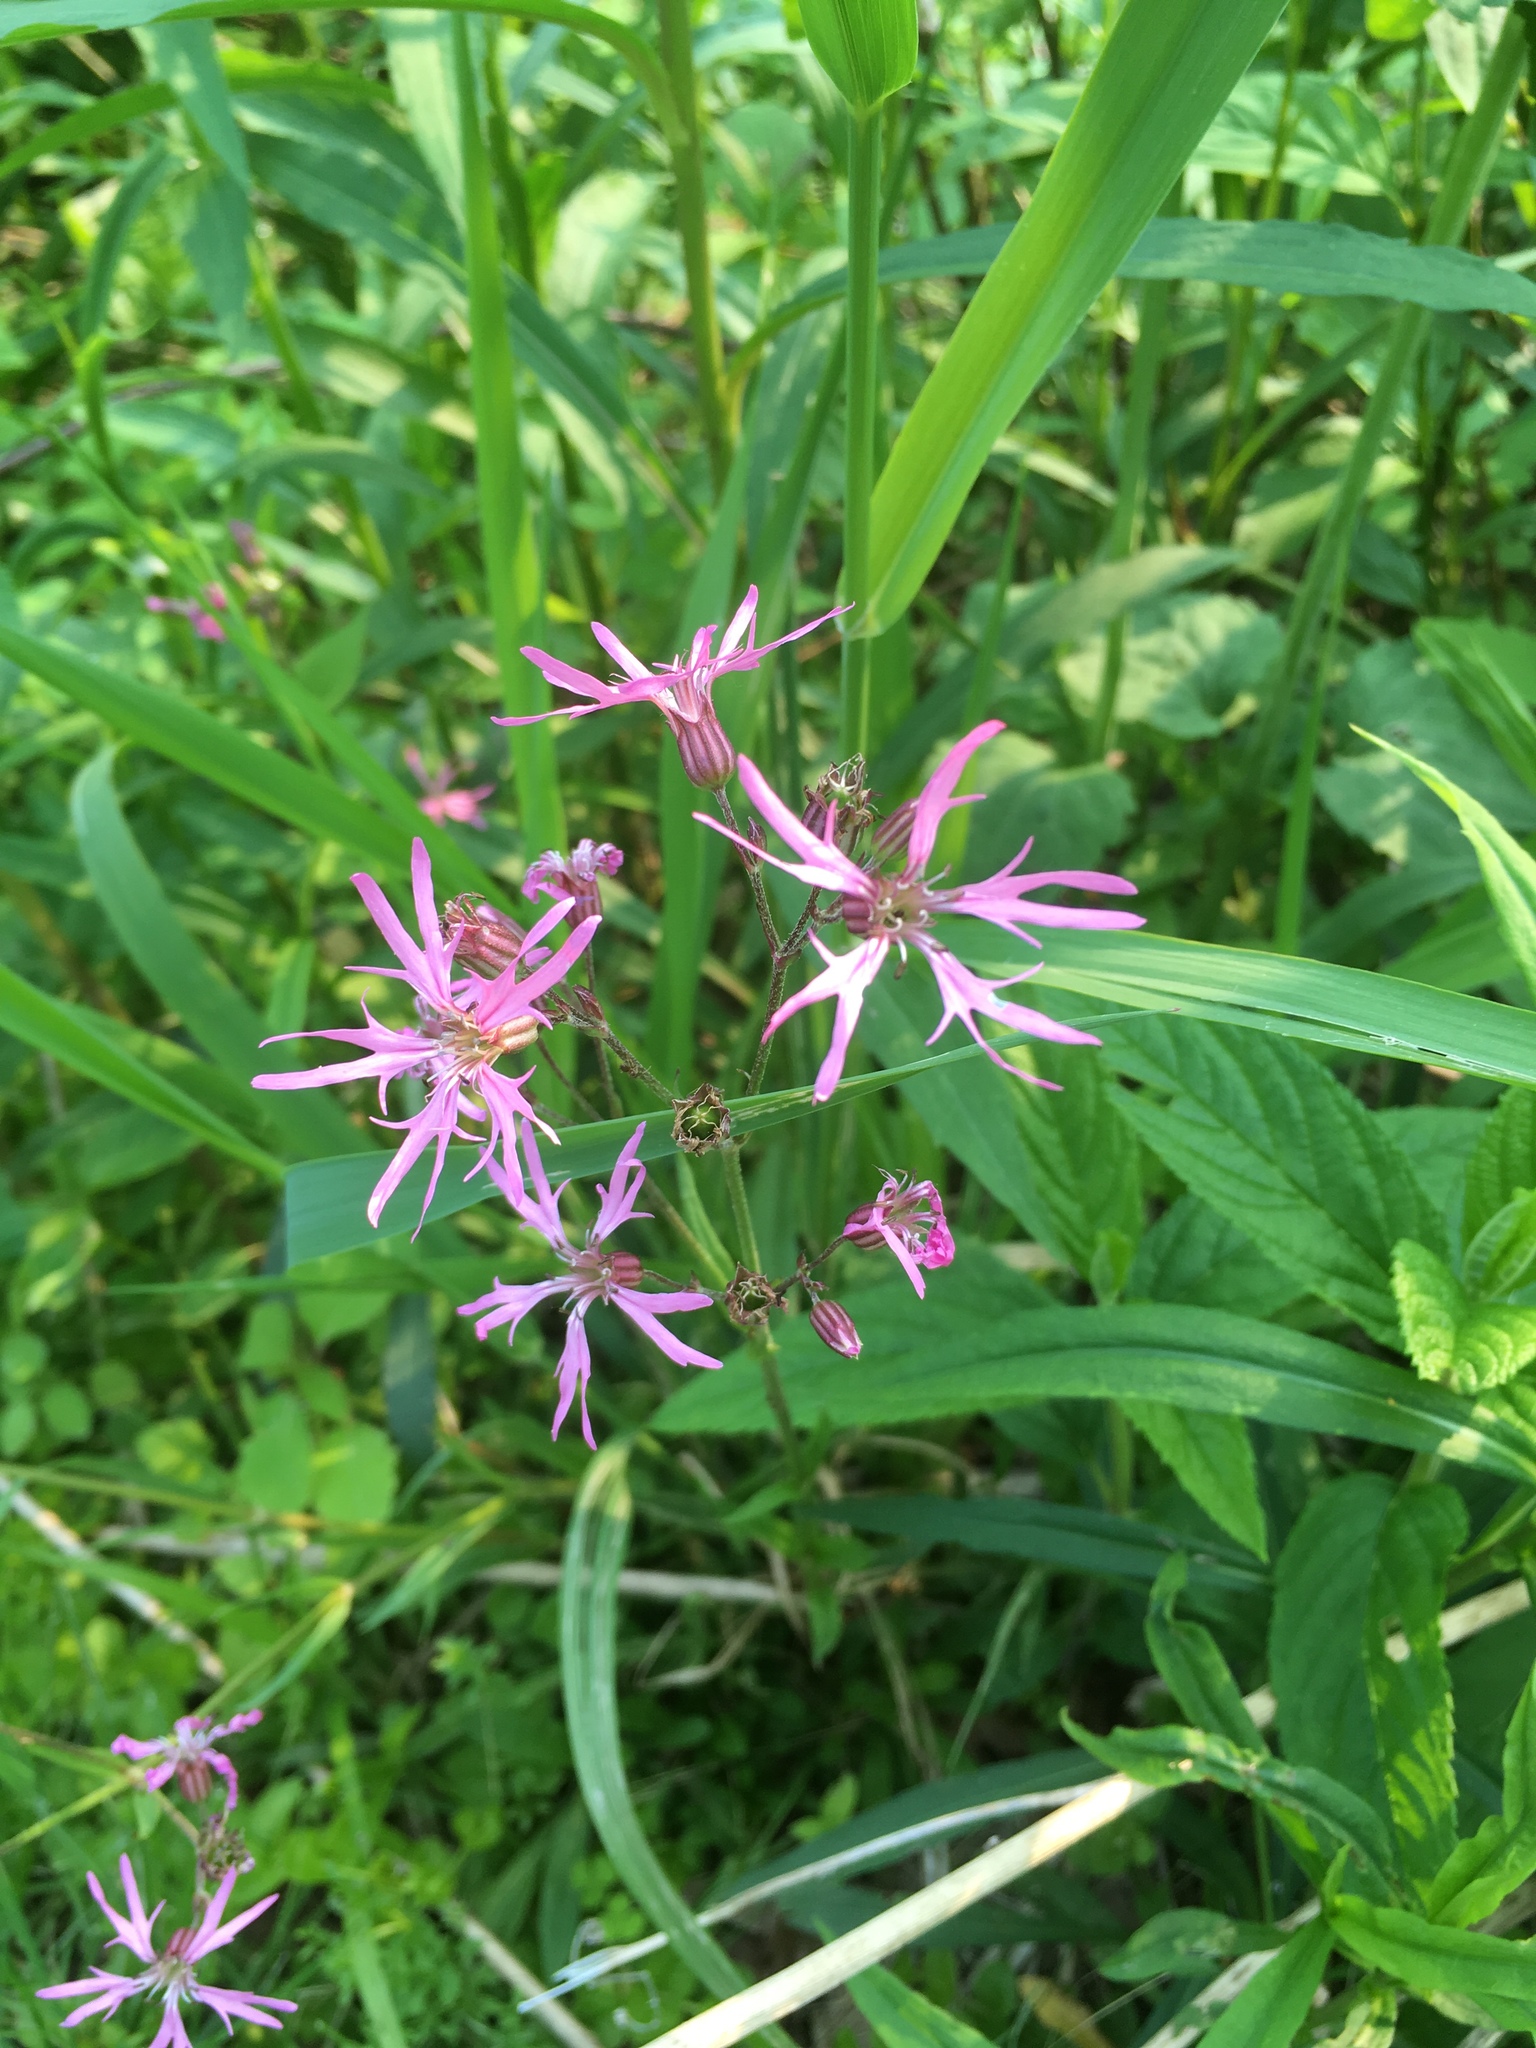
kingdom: Plantae
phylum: Tracheophyta
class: Magnoliopsida
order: Caryophyllales
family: Caryophyllaceae
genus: Silene
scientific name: Silene flos-cuculi
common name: Ragged-robin
